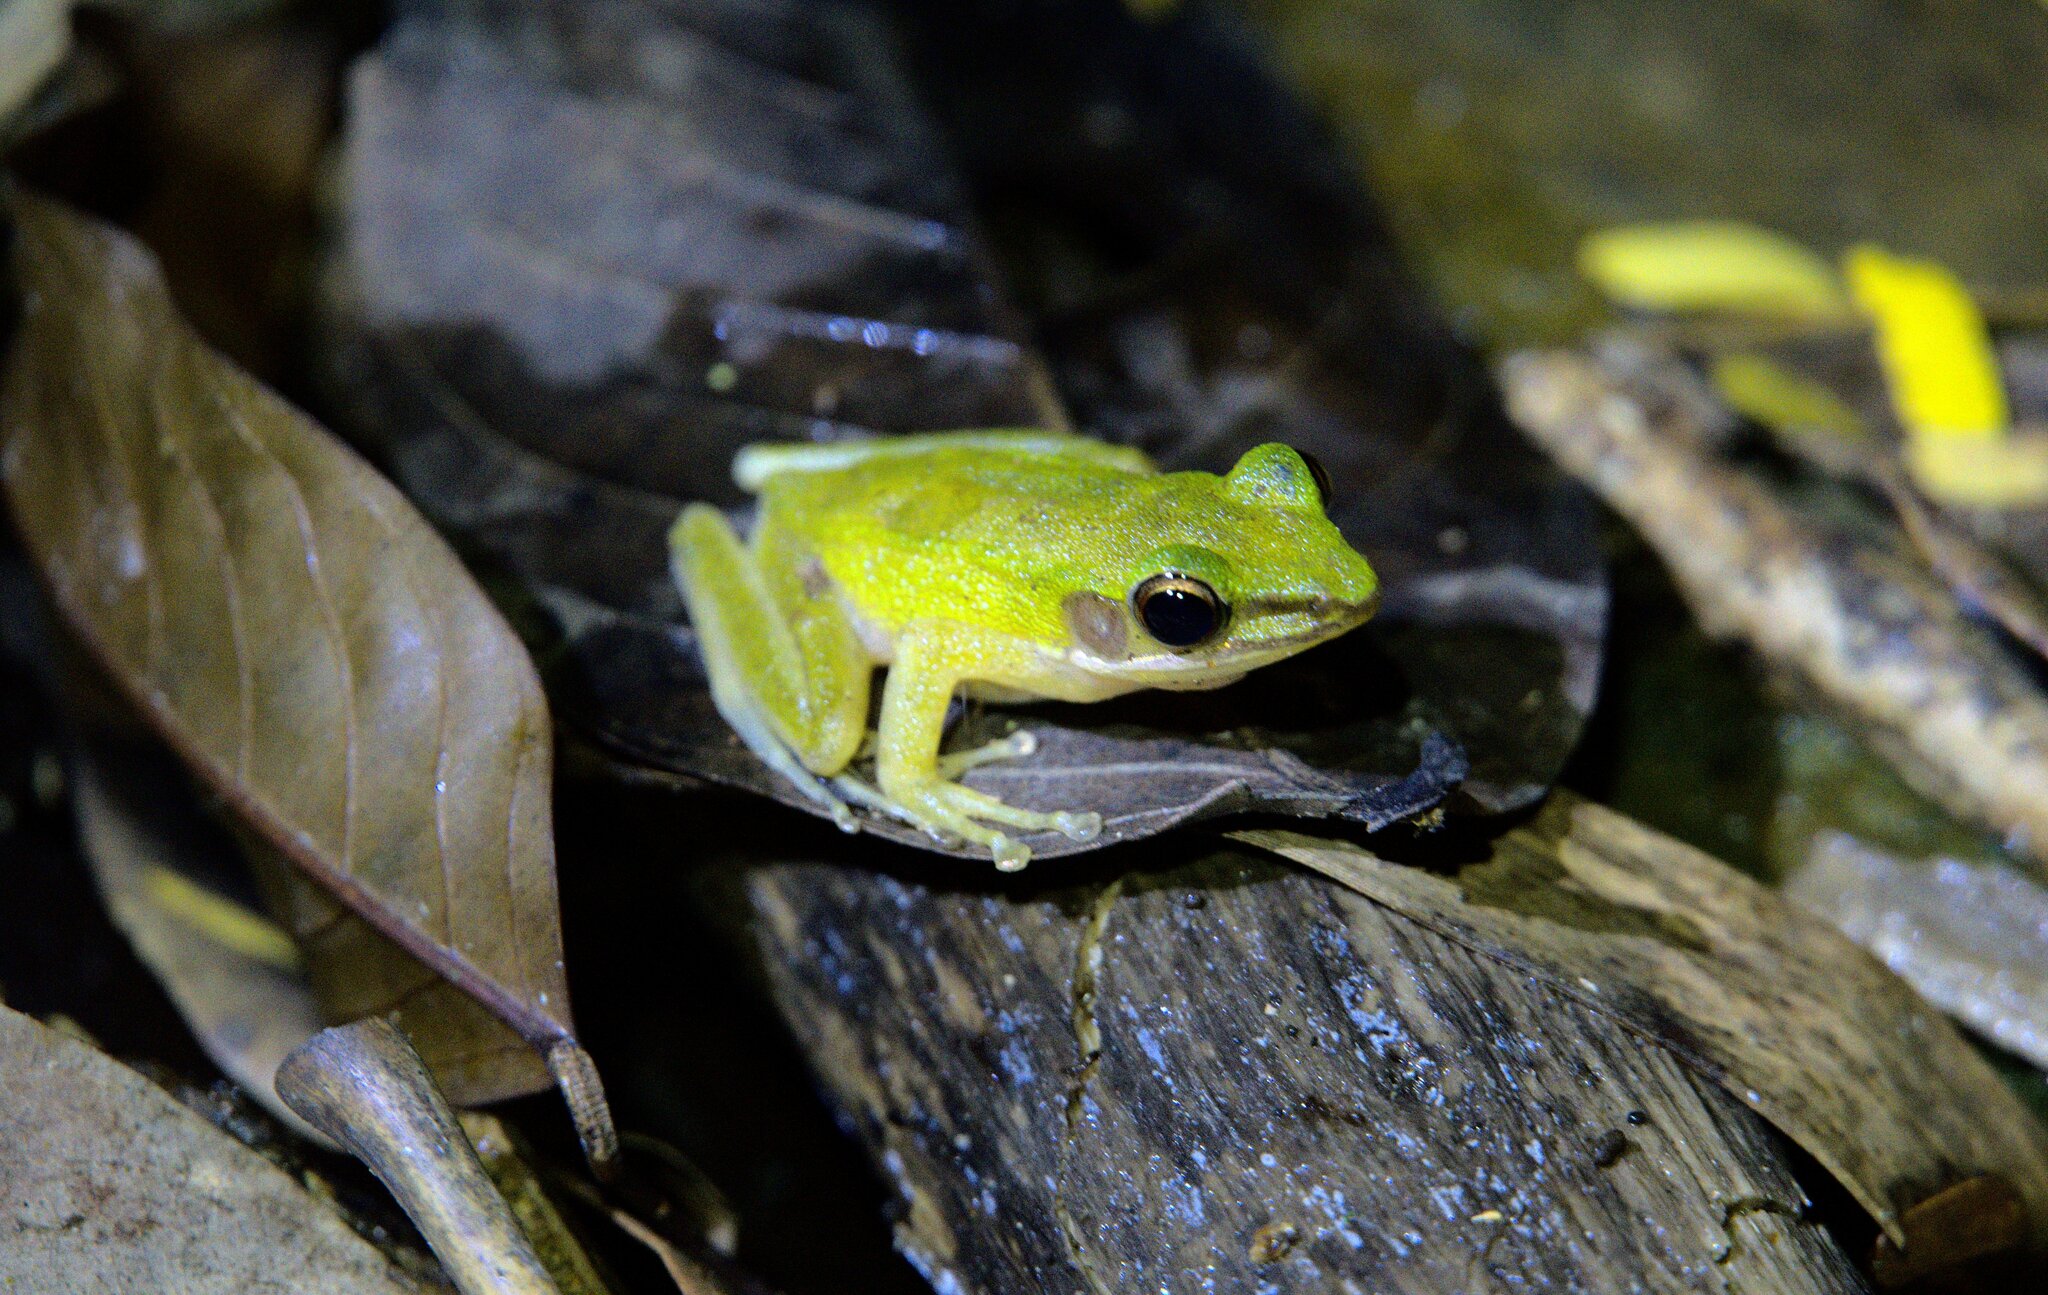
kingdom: Animalia
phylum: Chordata
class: Amphibia
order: Anura
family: Ranidae
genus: Chalcorana
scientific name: Chalcorana eschatia
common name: Tenasserim white-lipped frog
